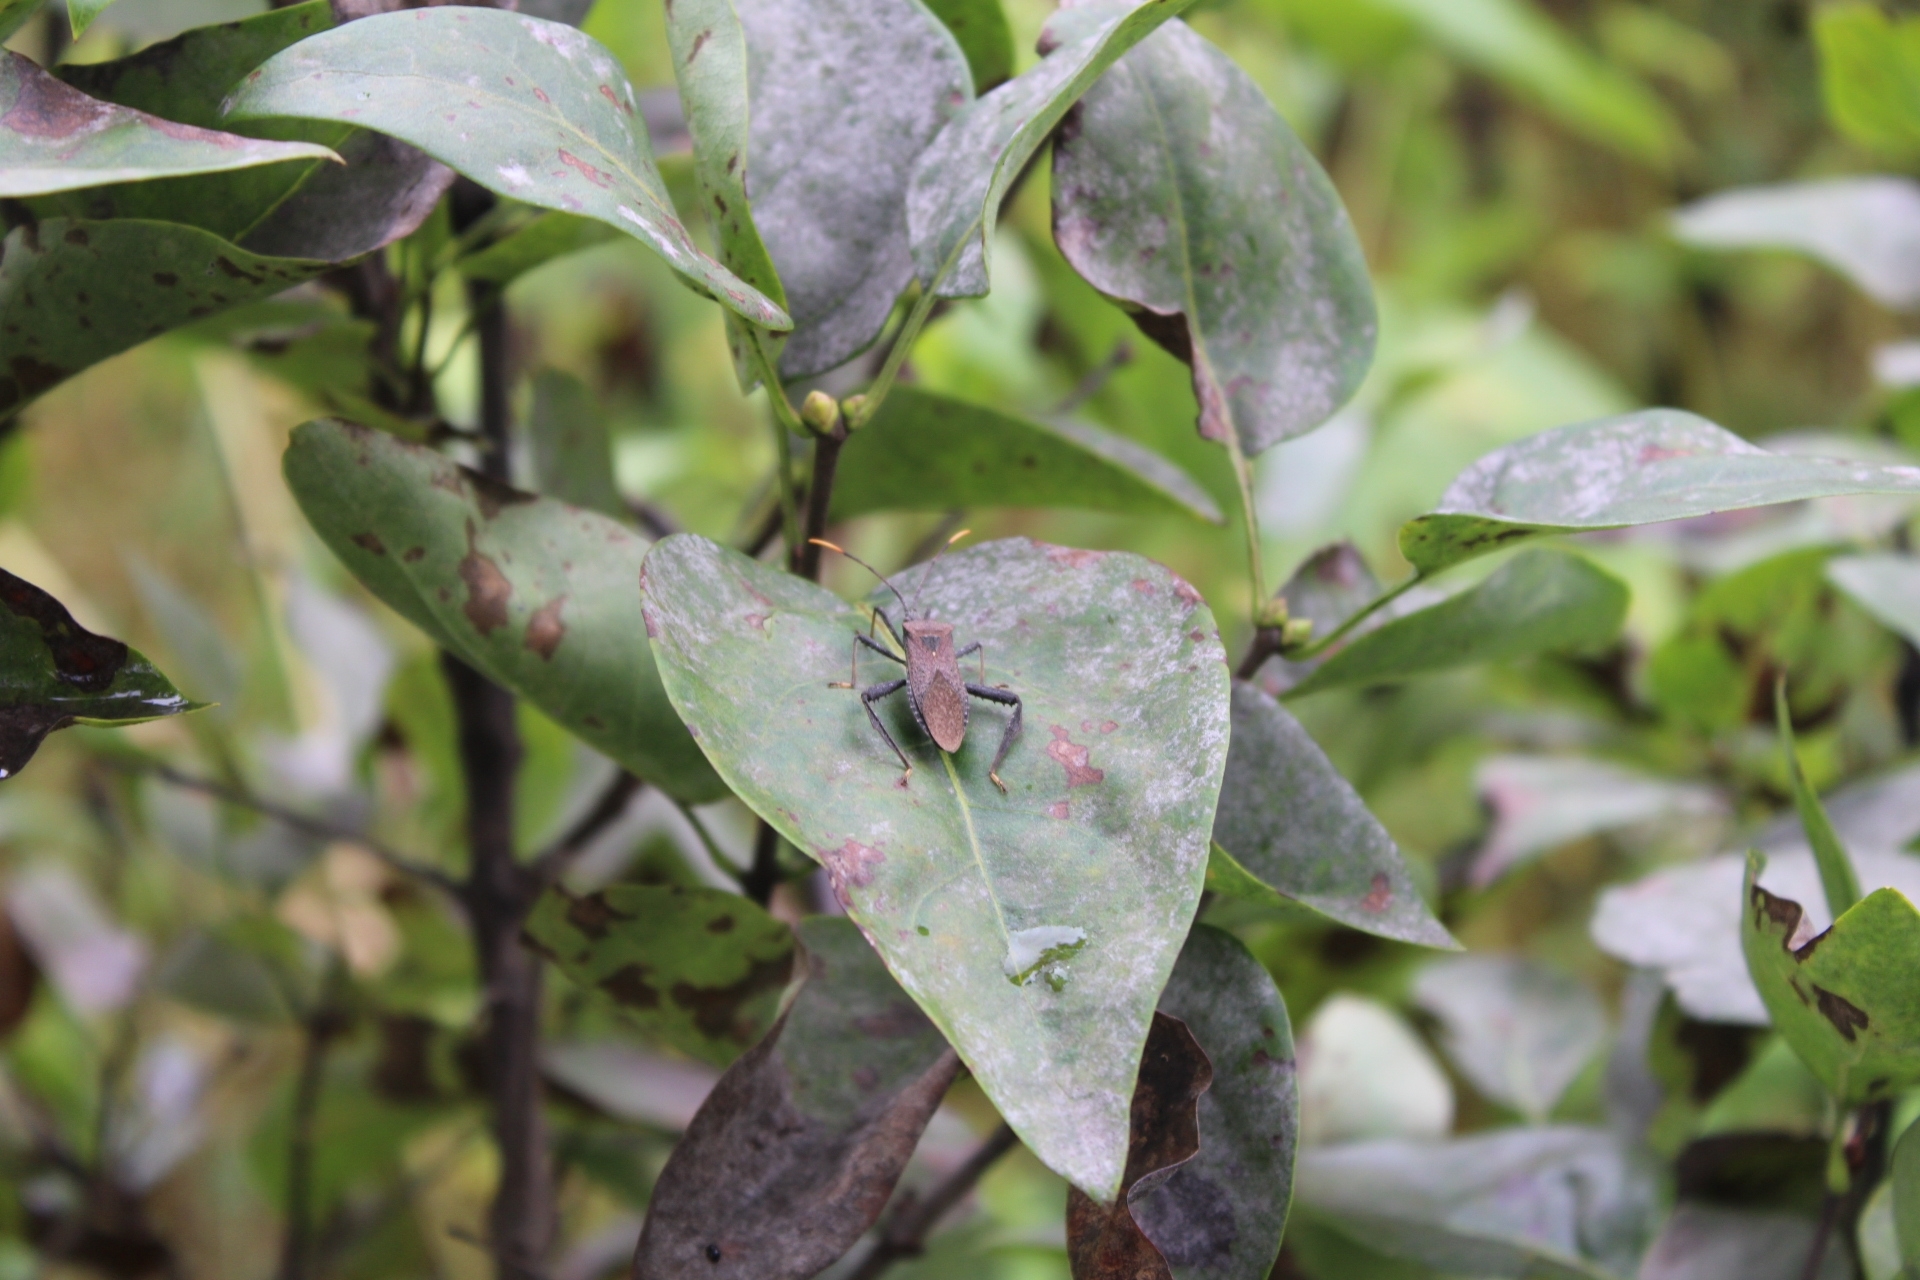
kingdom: Animalia
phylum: Arthropoda
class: Insecta
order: Hemiptera
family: Coreidae
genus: Acanthocephala
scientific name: Acanthocephala terminalis
